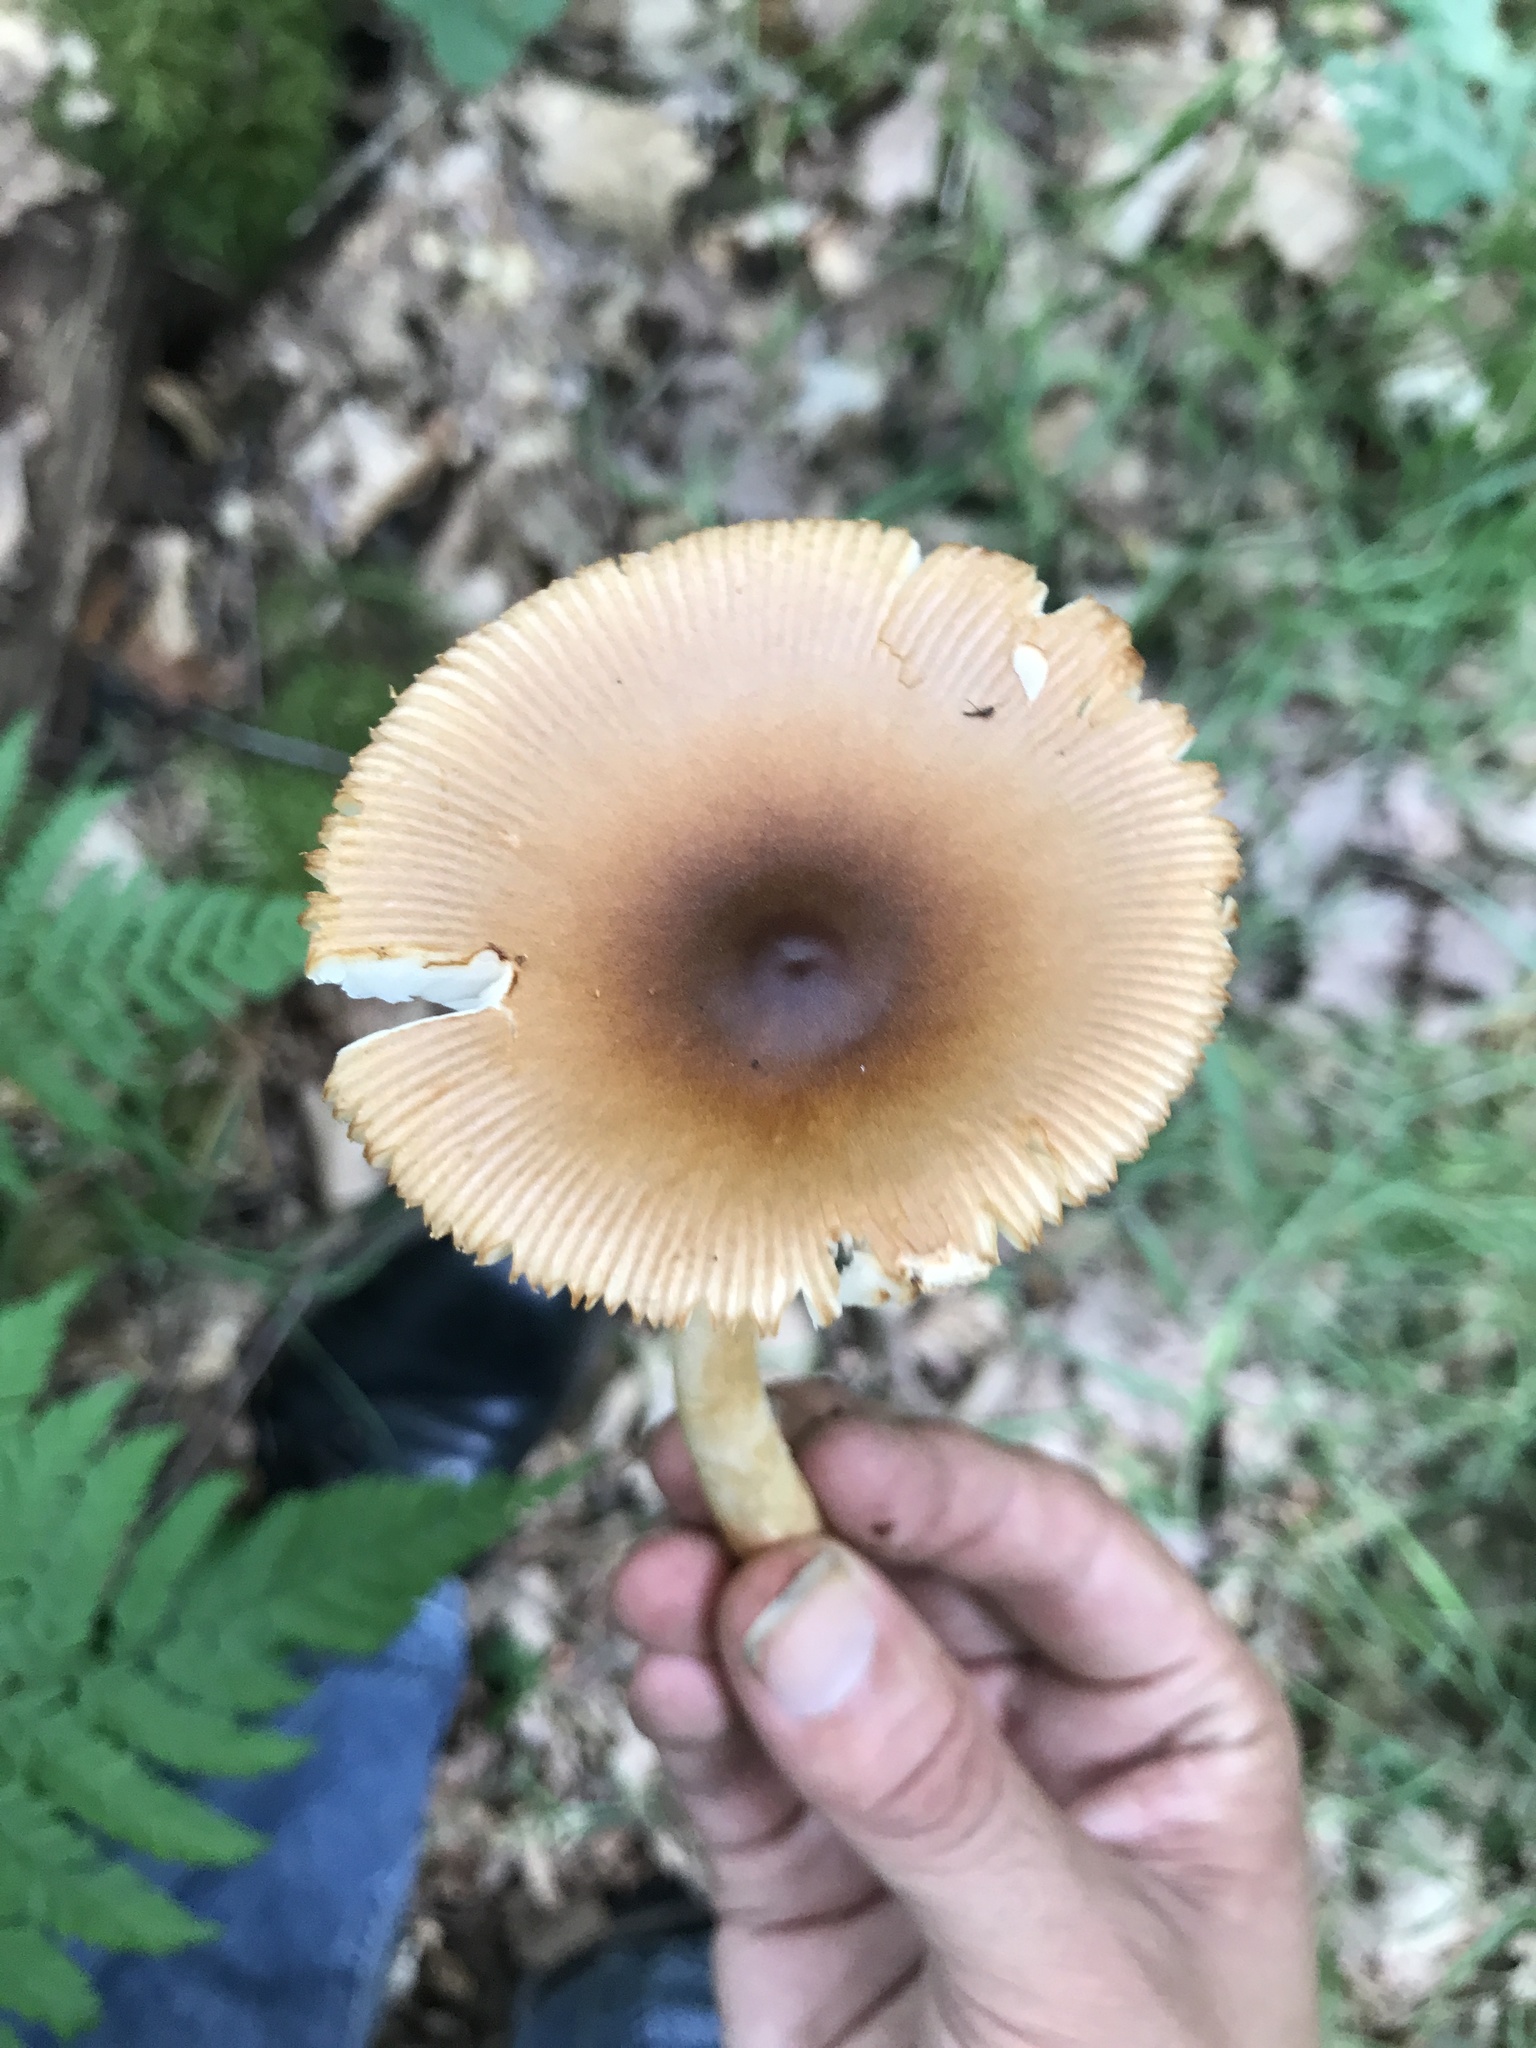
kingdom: Fungi
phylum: Basidiomycota
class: Agaricomycetes
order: Agaricales
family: Amanitaceae
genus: Amanita
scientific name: Amanita fulva
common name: Tawny grisette
